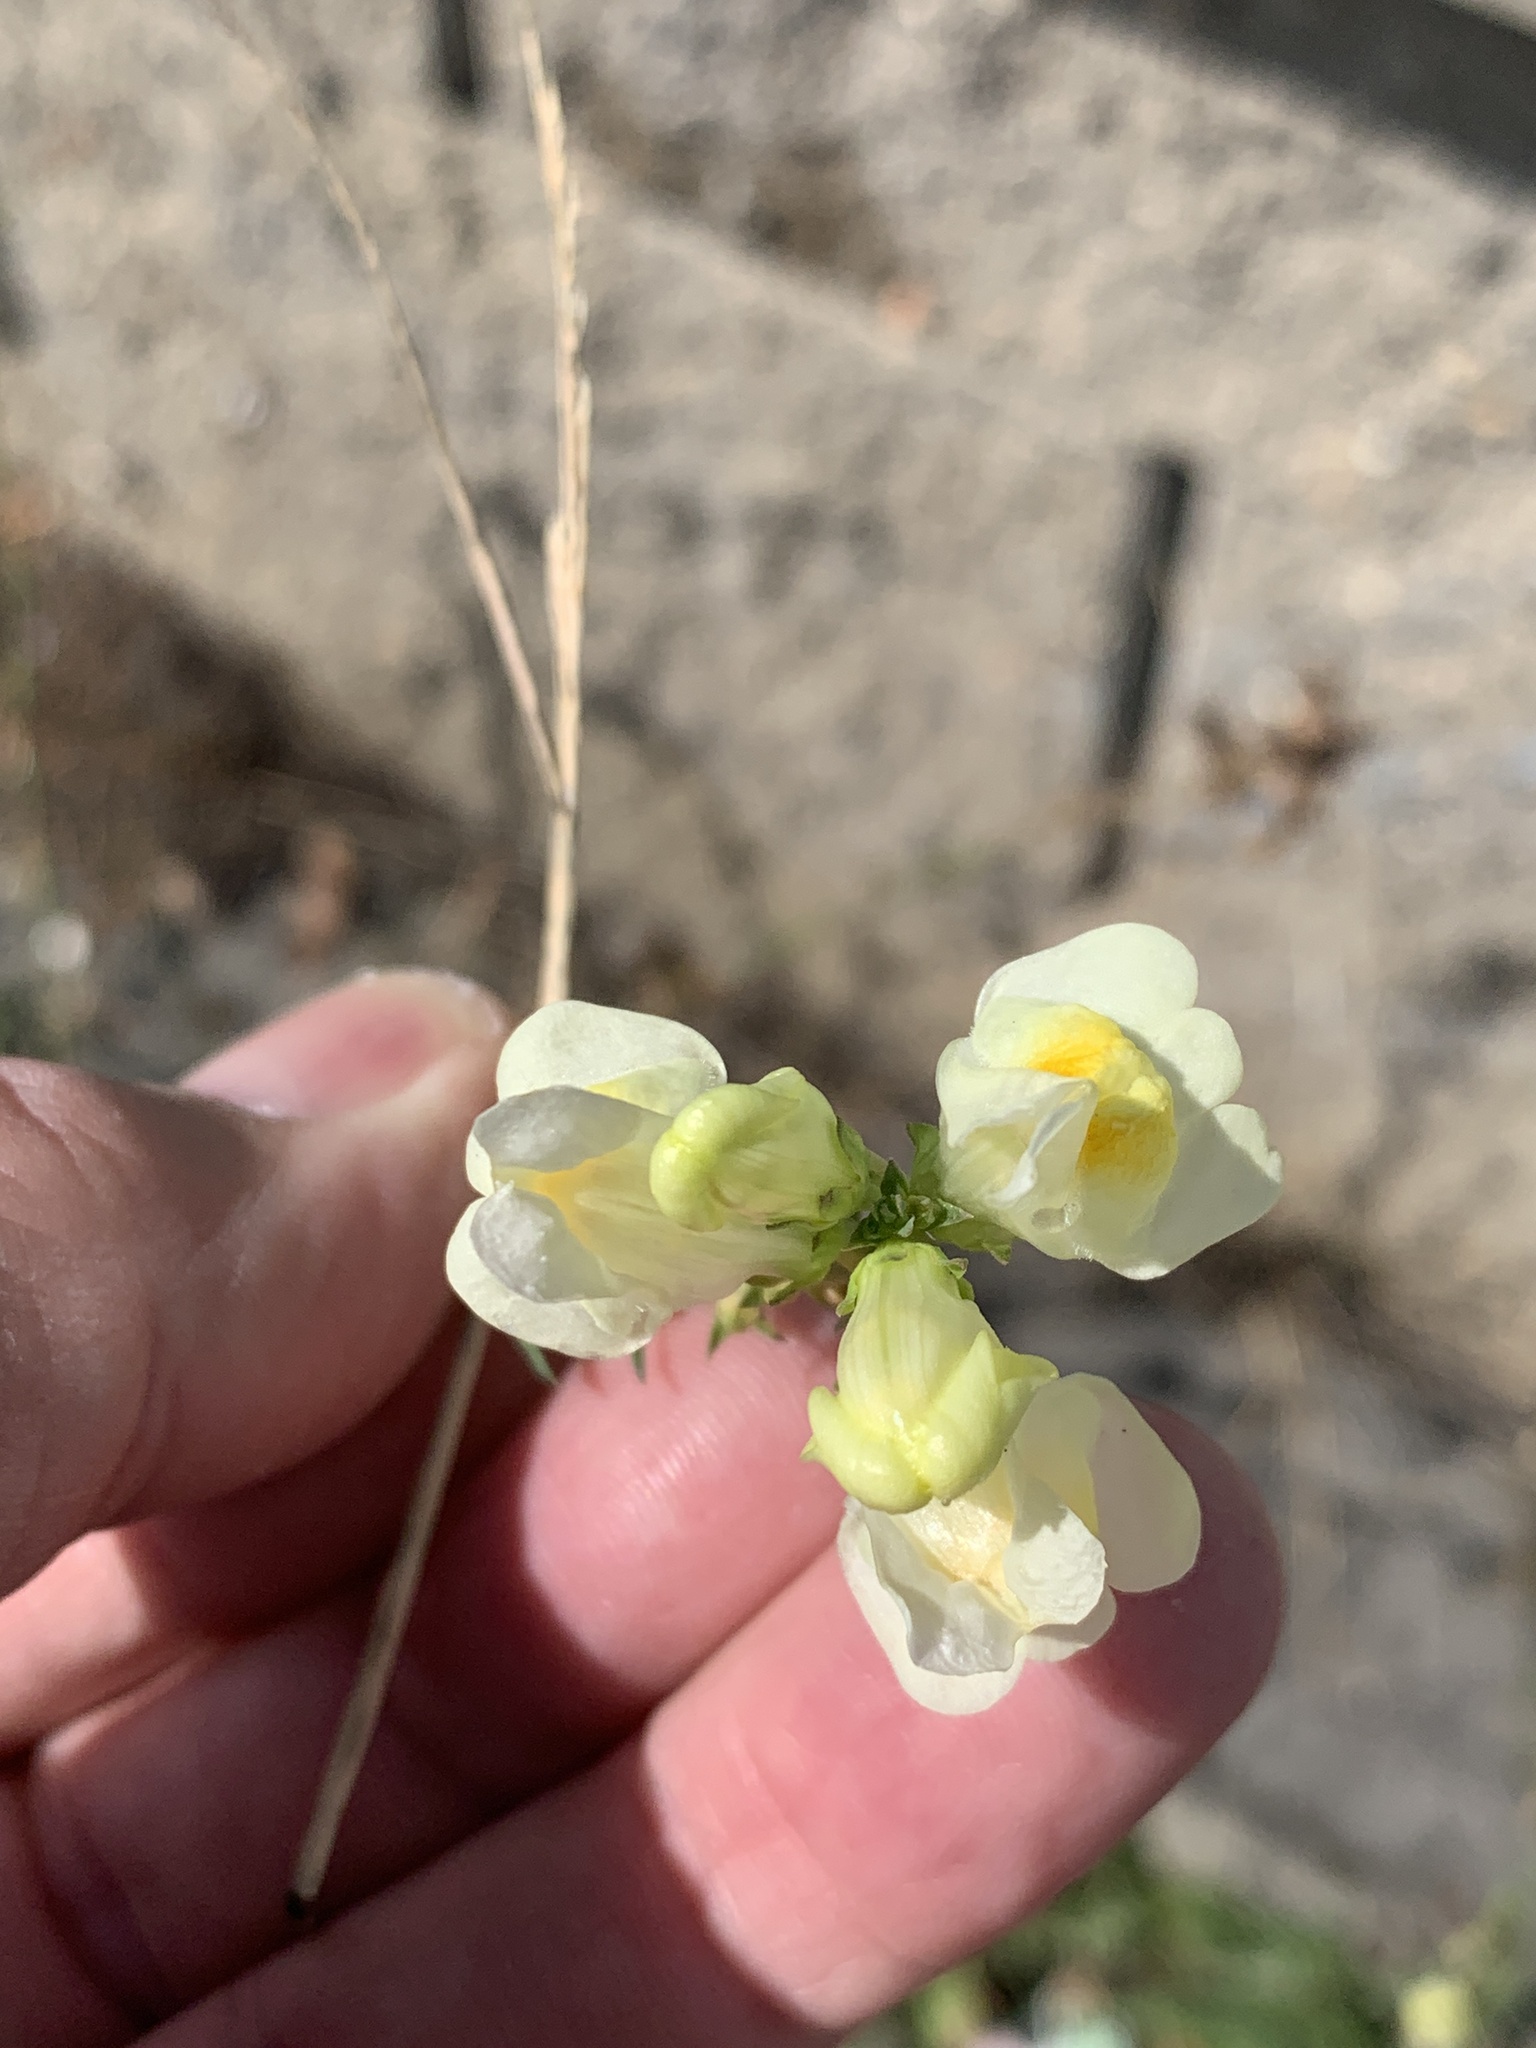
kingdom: Plantae
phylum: Tracheophyta
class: Magnoliopsida
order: Lamiales
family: Plantaginaceae
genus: Linaria
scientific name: Linaria vulgaris
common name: Butter and eggs
